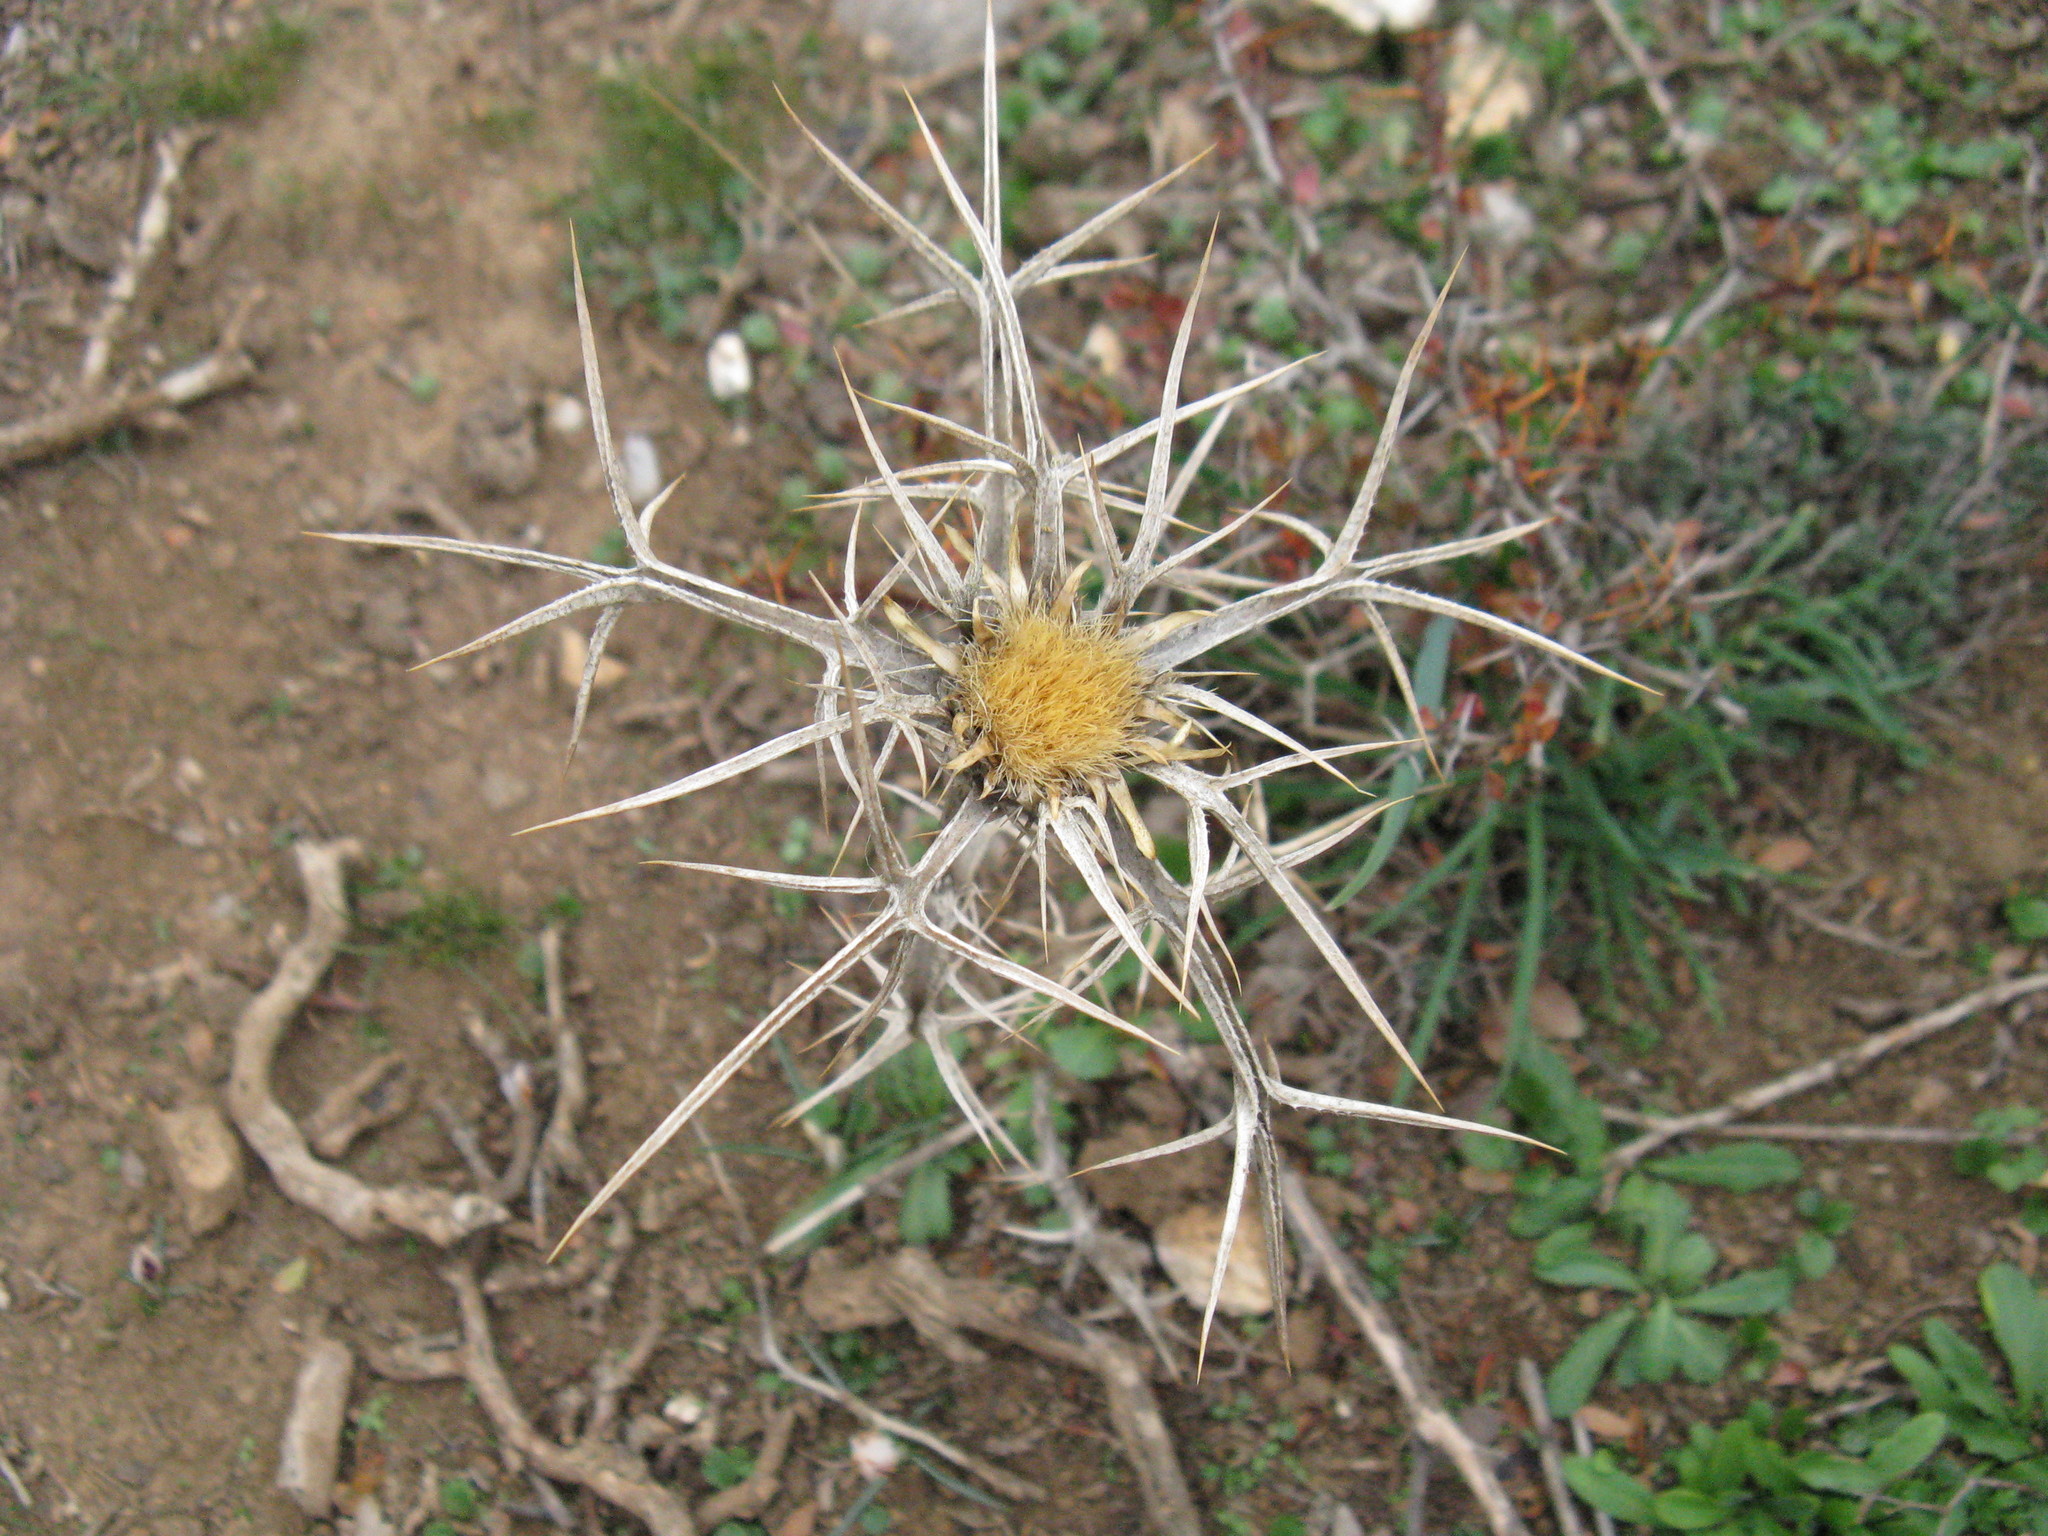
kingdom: Plantae
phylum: Tracheophyta
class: Magnoliopsida
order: Asterales
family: Asteraceae
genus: Carlina
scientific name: Carlina curetum
